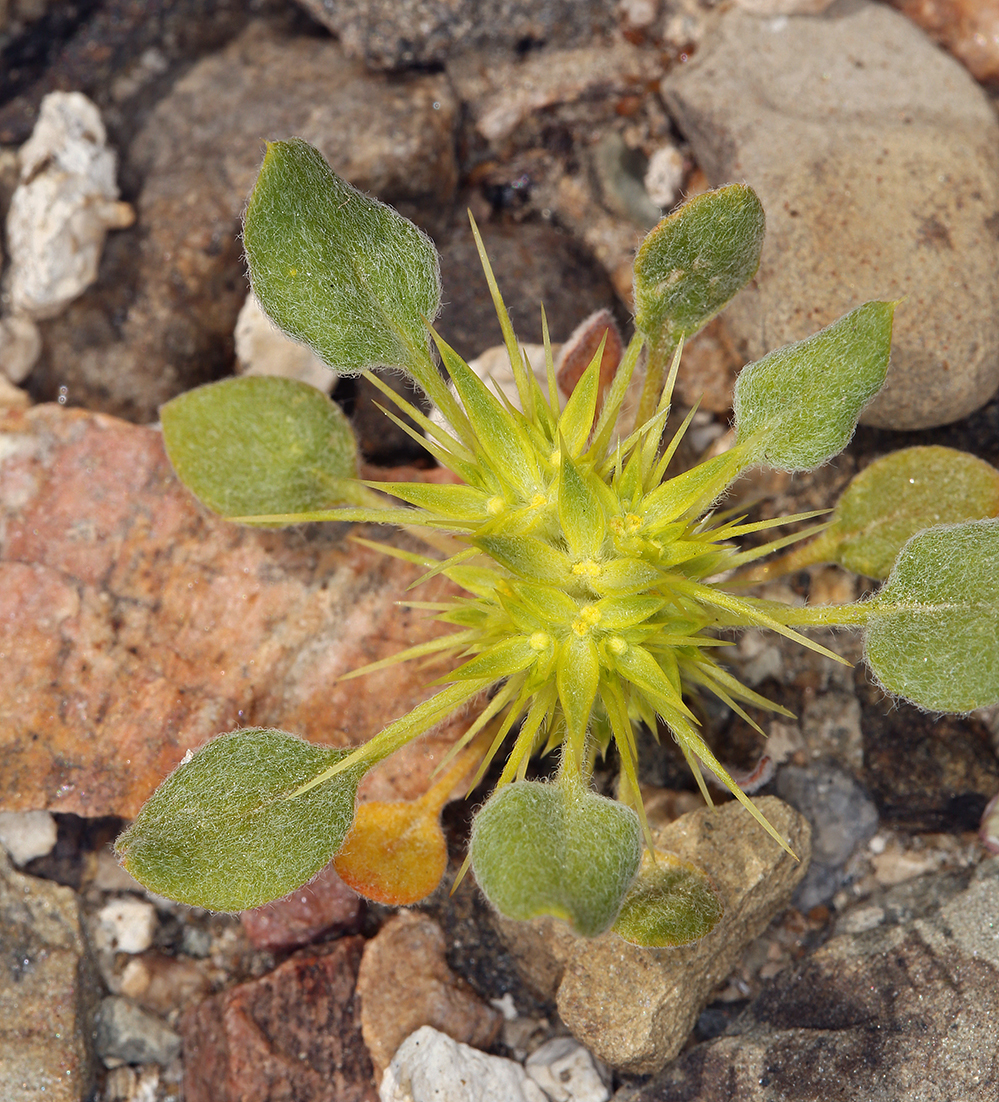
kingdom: Plantae
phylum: Tracheophyta
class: Magnoliopsida
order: Caryophyllales
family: Polygonaceae
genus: Chorizanthe
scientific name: Chorizanthe rigida
